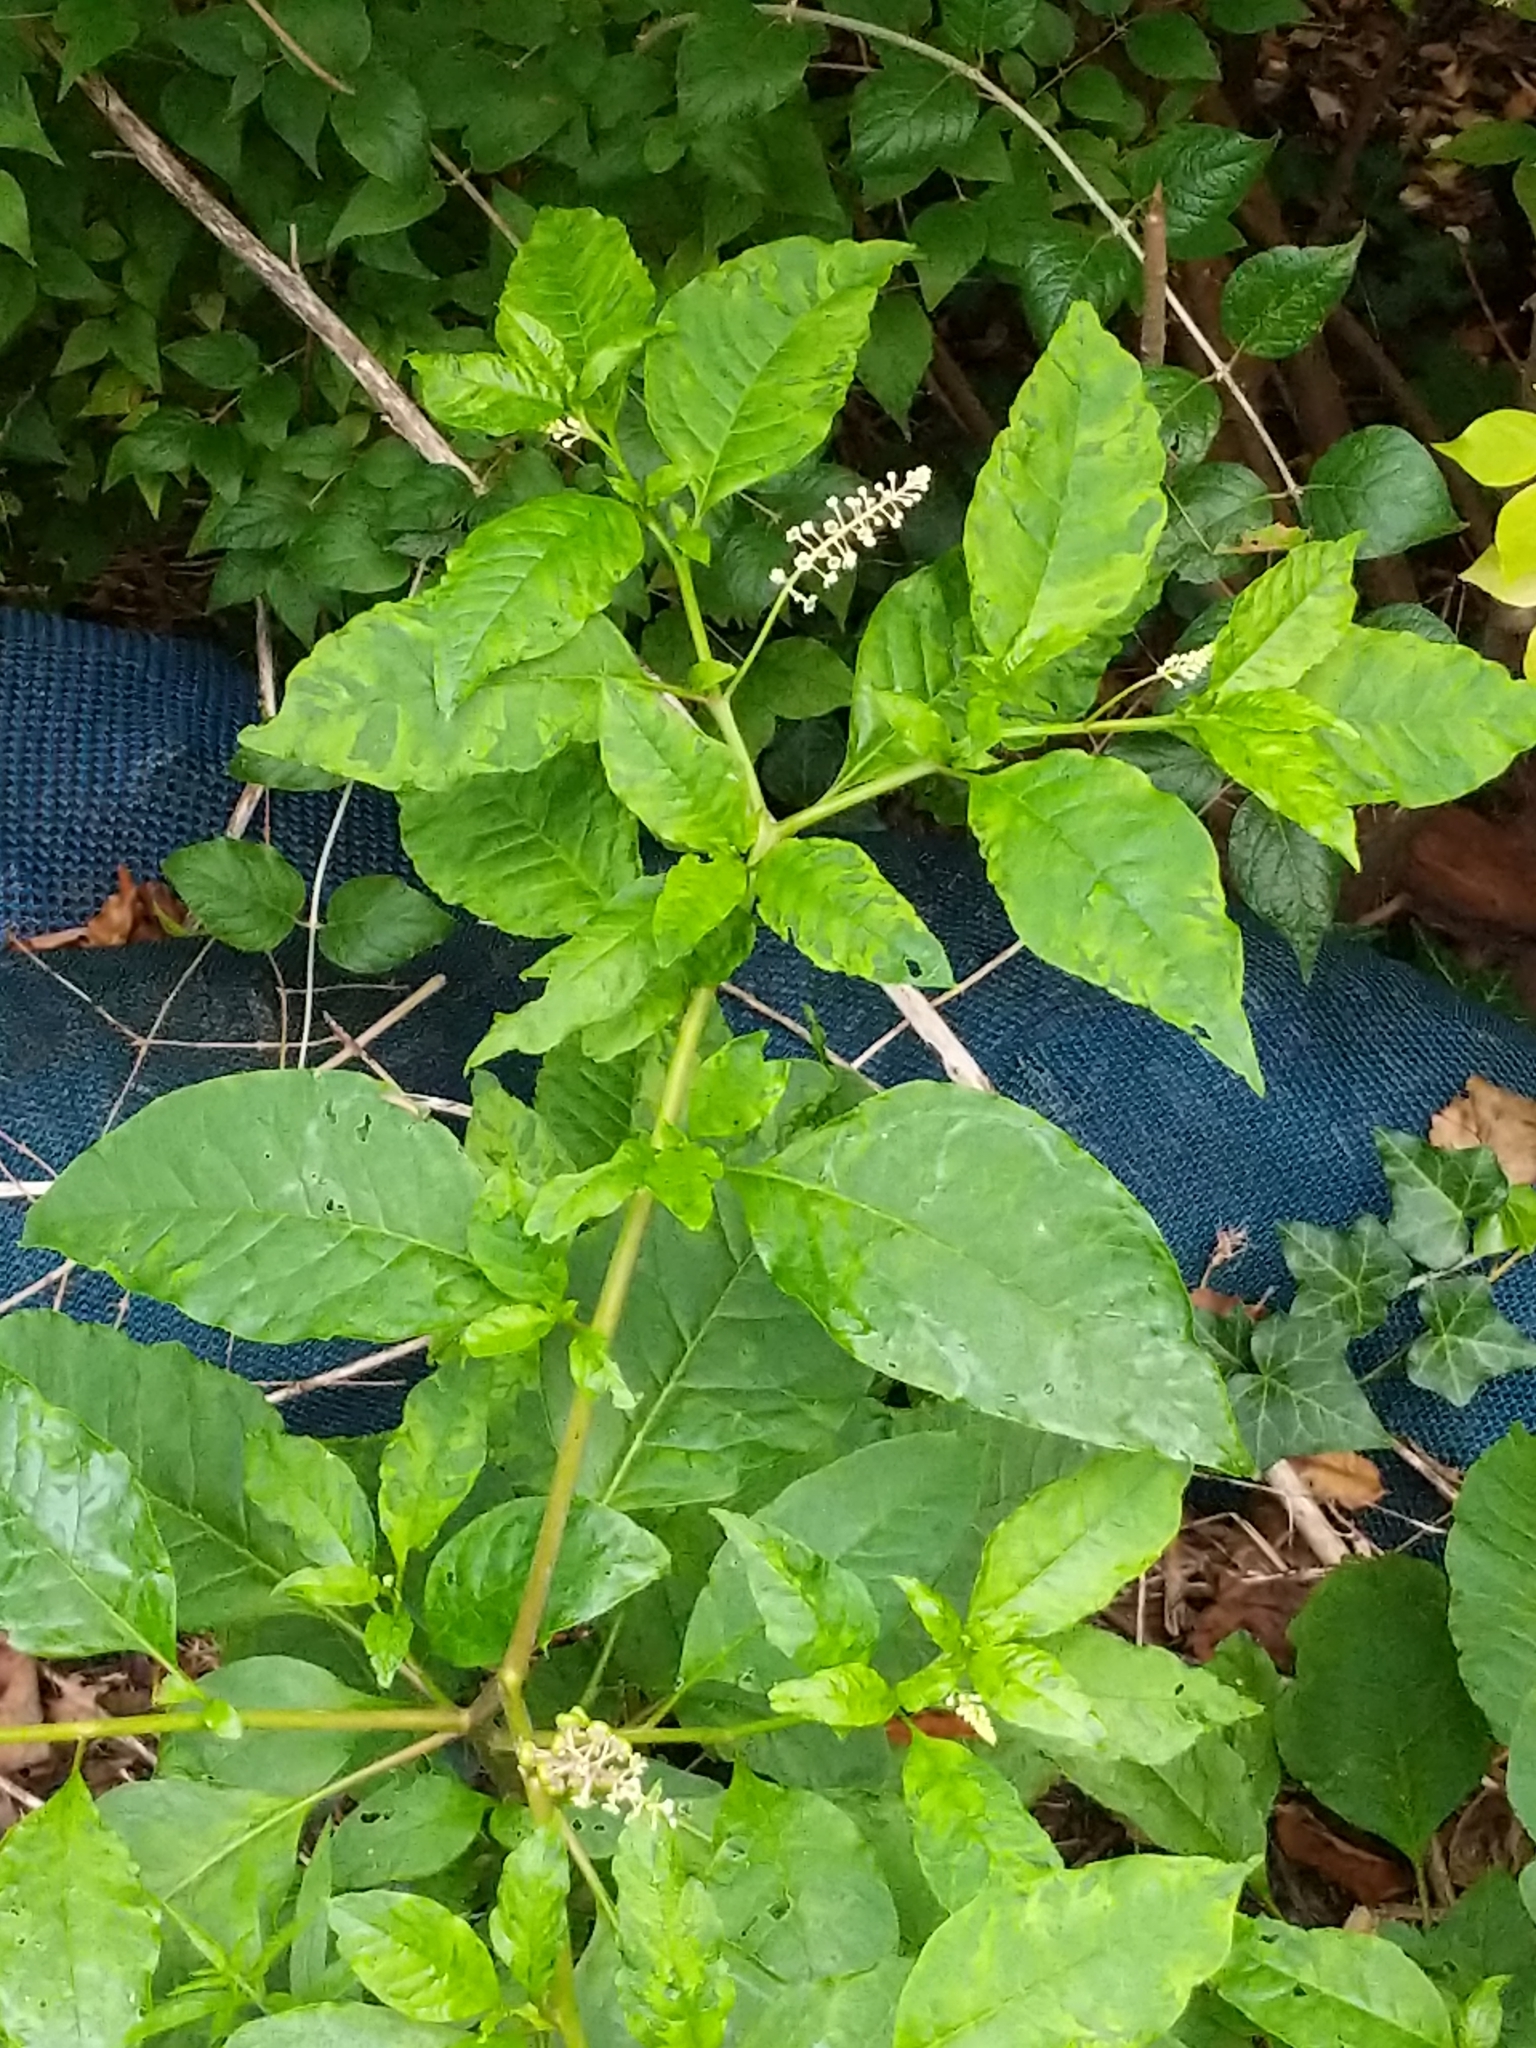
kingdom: Plantae
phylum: Tracheophyta
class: Magnoliopsida
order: Caryophyllales
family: Phytolaccaceae
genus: Phytolacca
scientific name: Phytolacca americana
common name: American pokeweed
